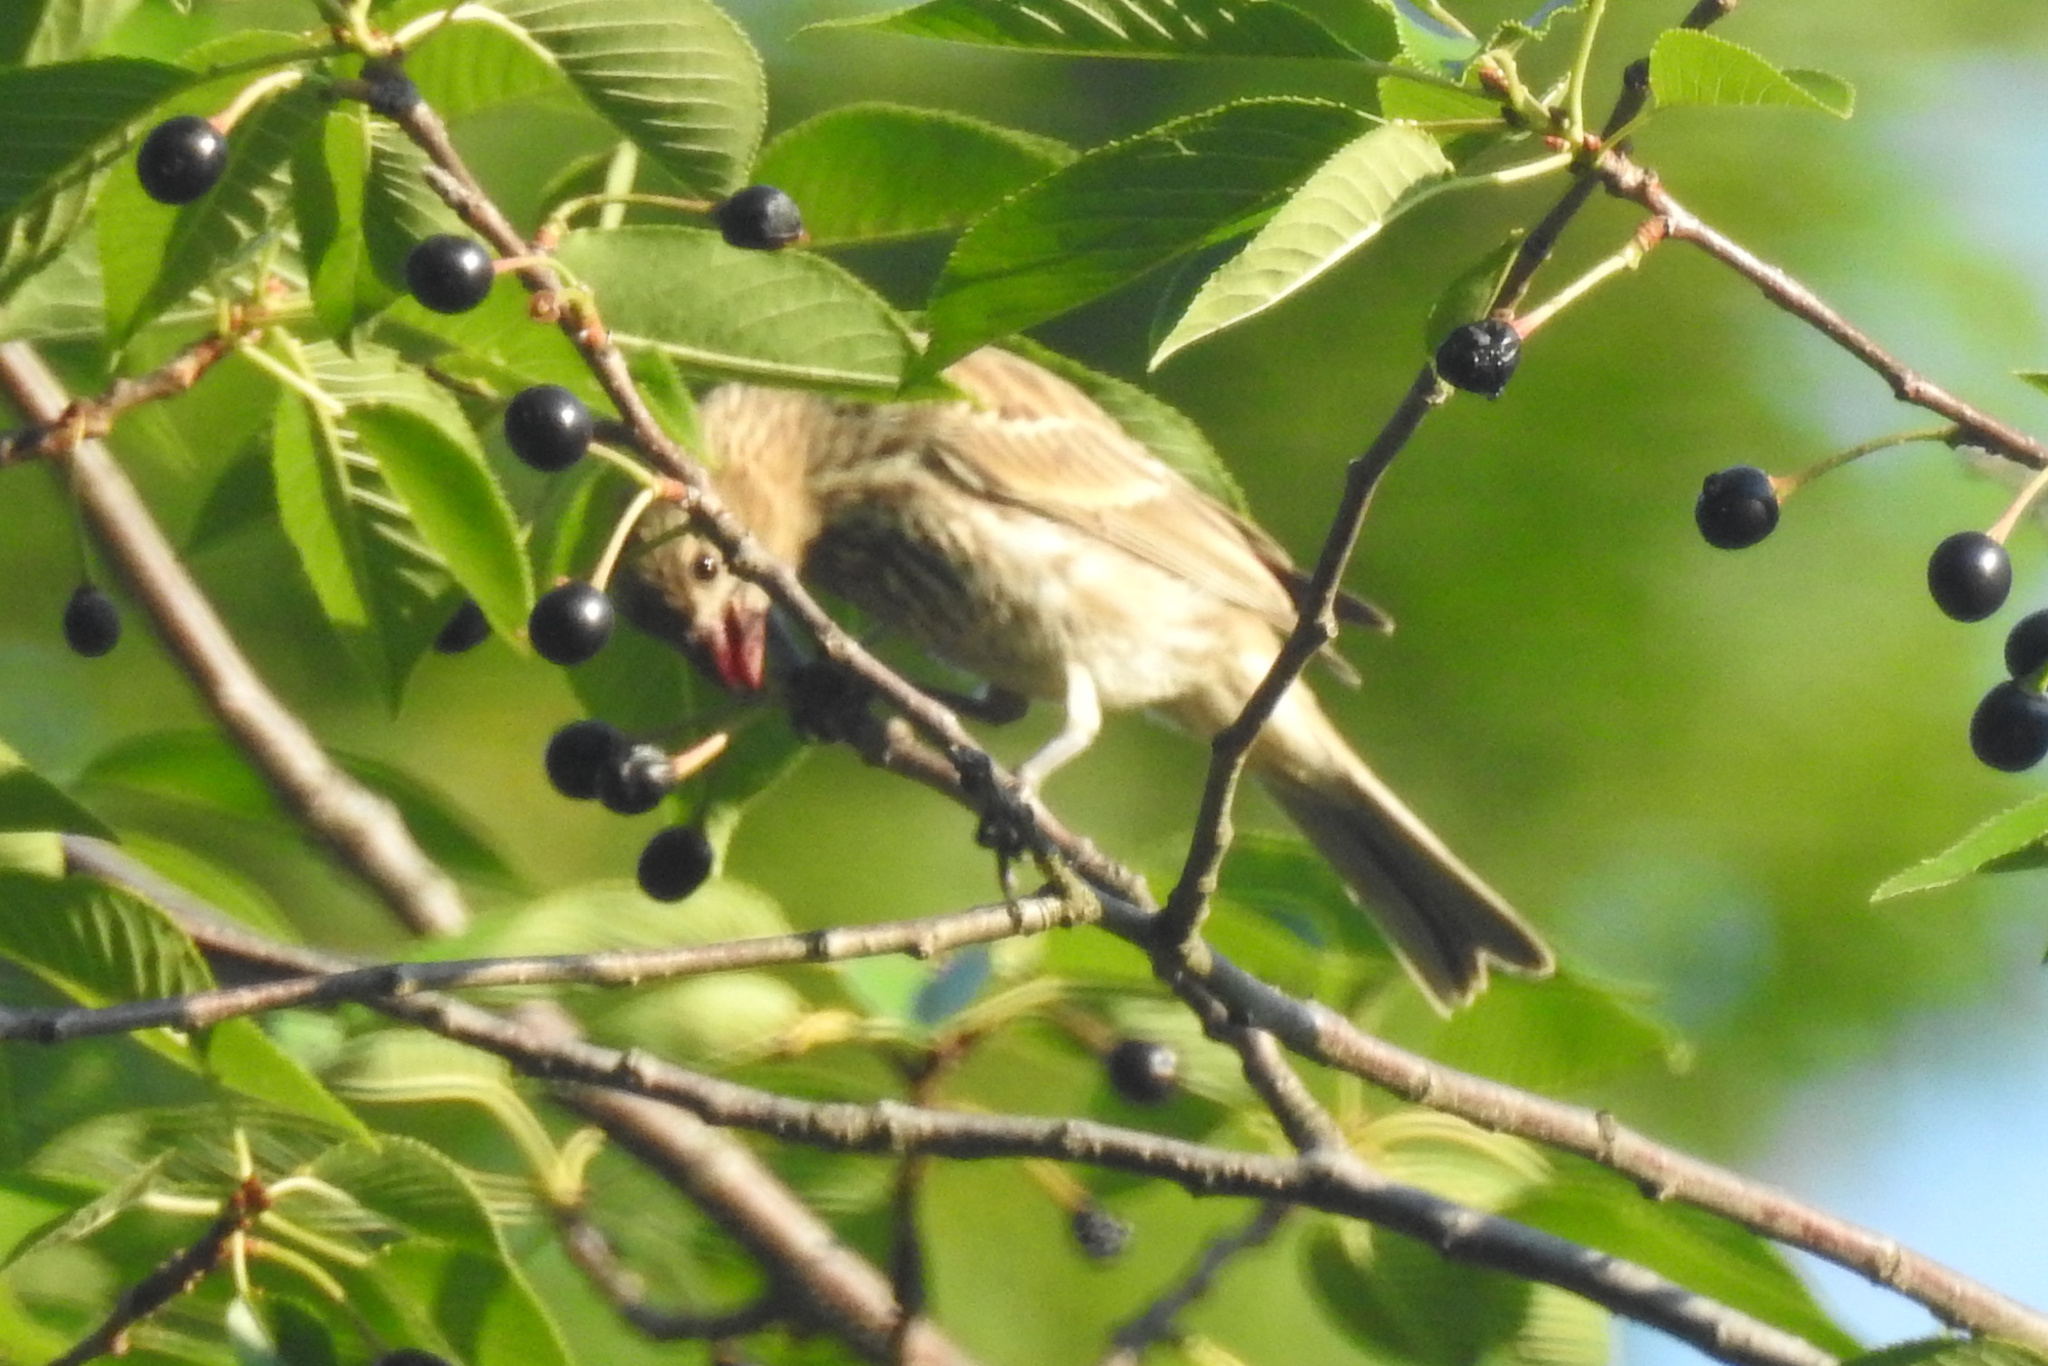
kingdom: Animalia
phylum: Chordata
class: Aves
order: Passeriformes
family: Fringillidae
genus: Haemorhous
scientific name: Haemorhous mexicanus
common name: House finch
